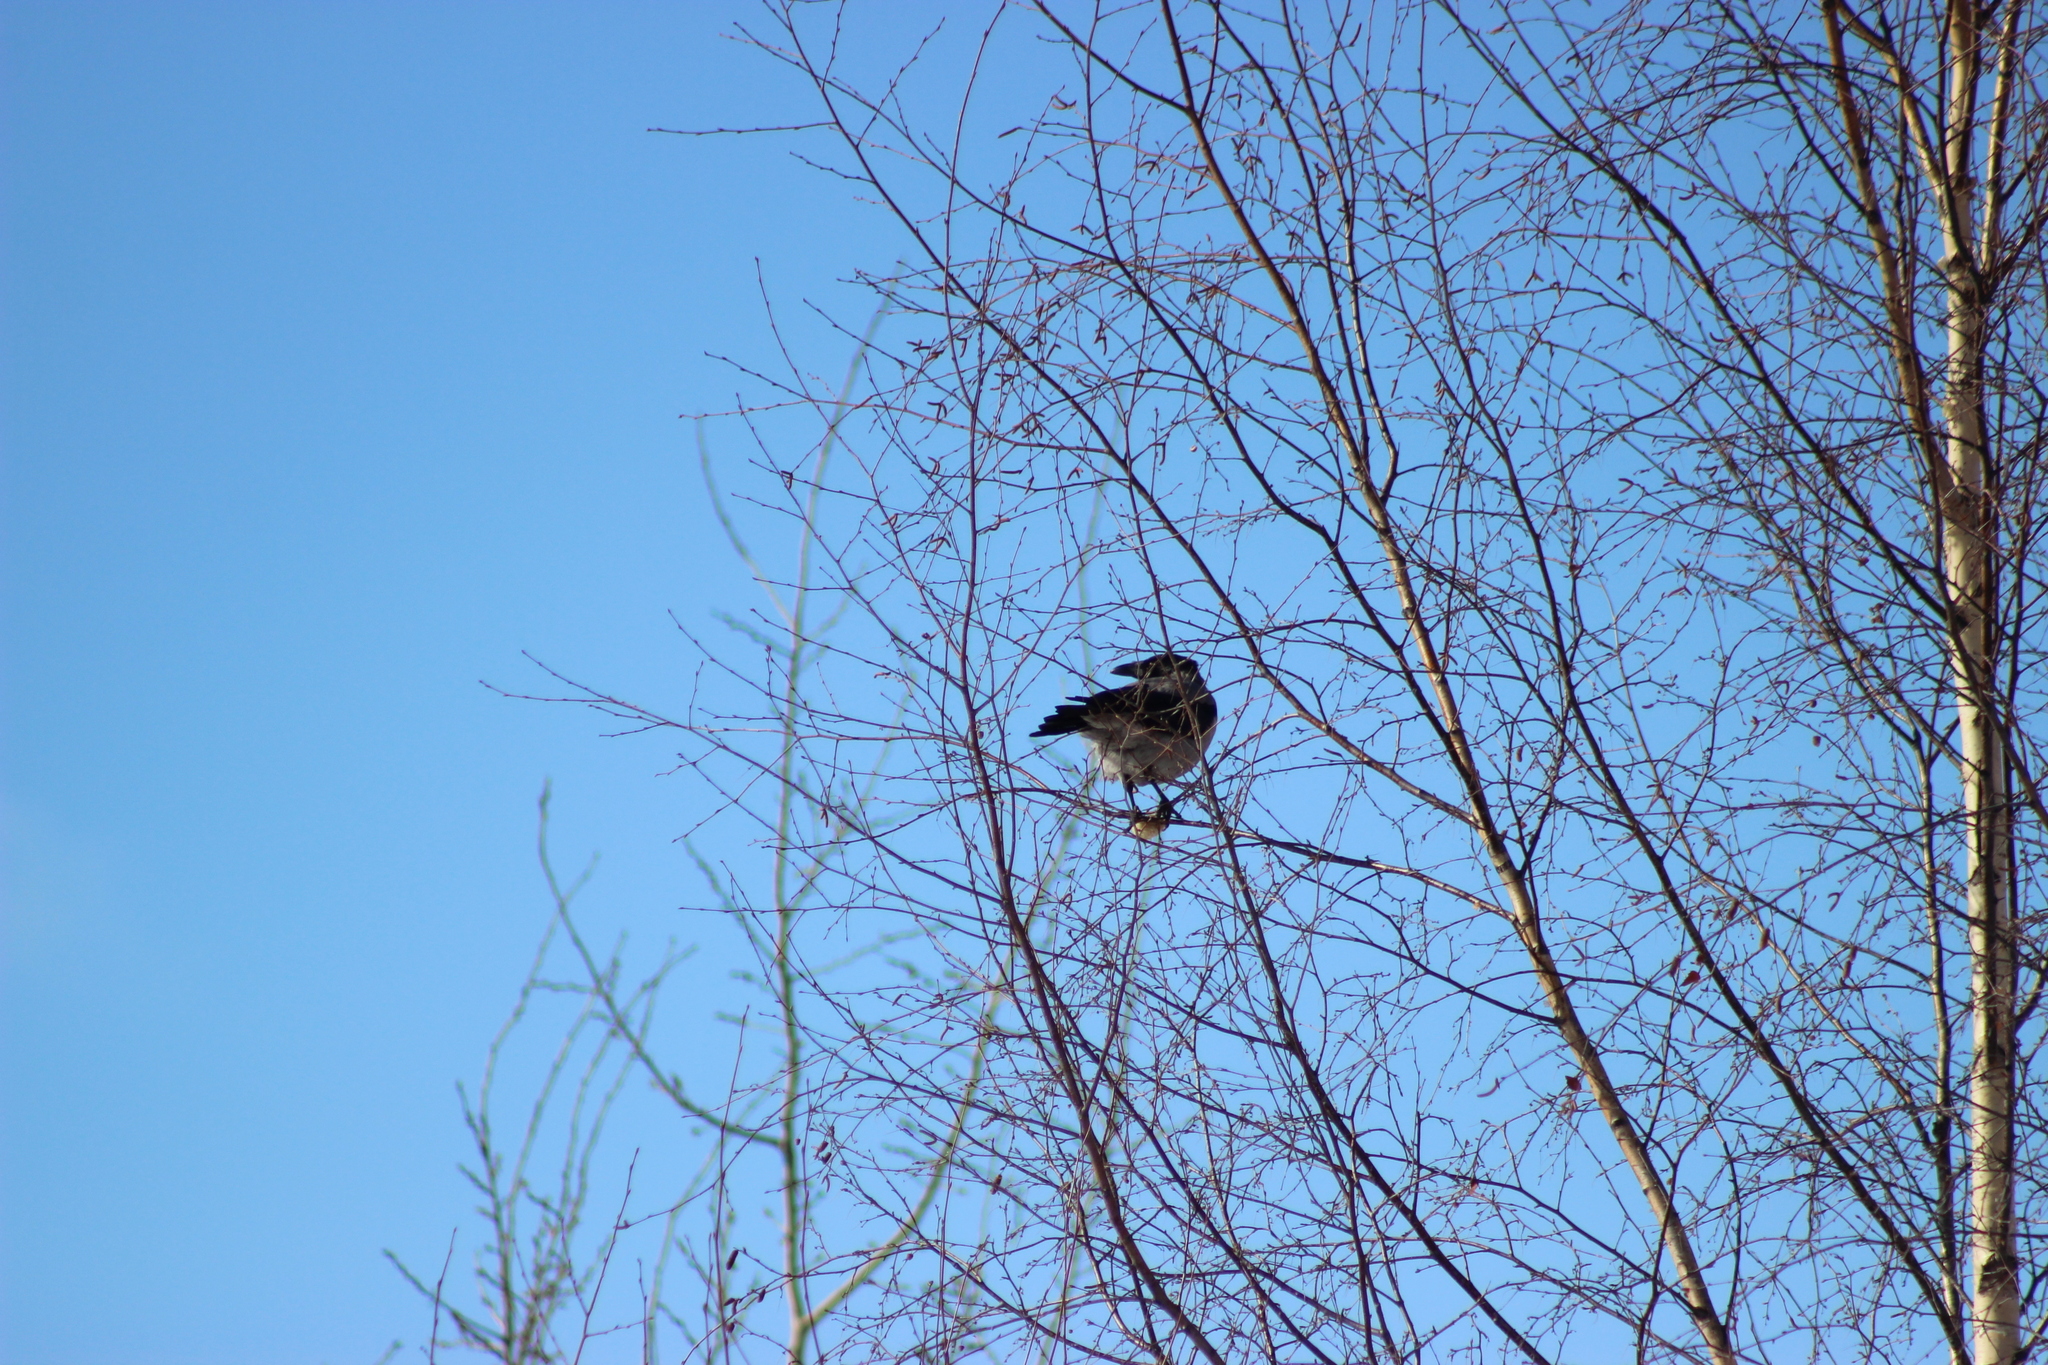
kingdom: Animalia
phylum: Chordata
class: Aves
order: Passeriformes
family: Corvidae
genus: Corvus
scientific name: Corvus cornix
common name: Hooded crow
